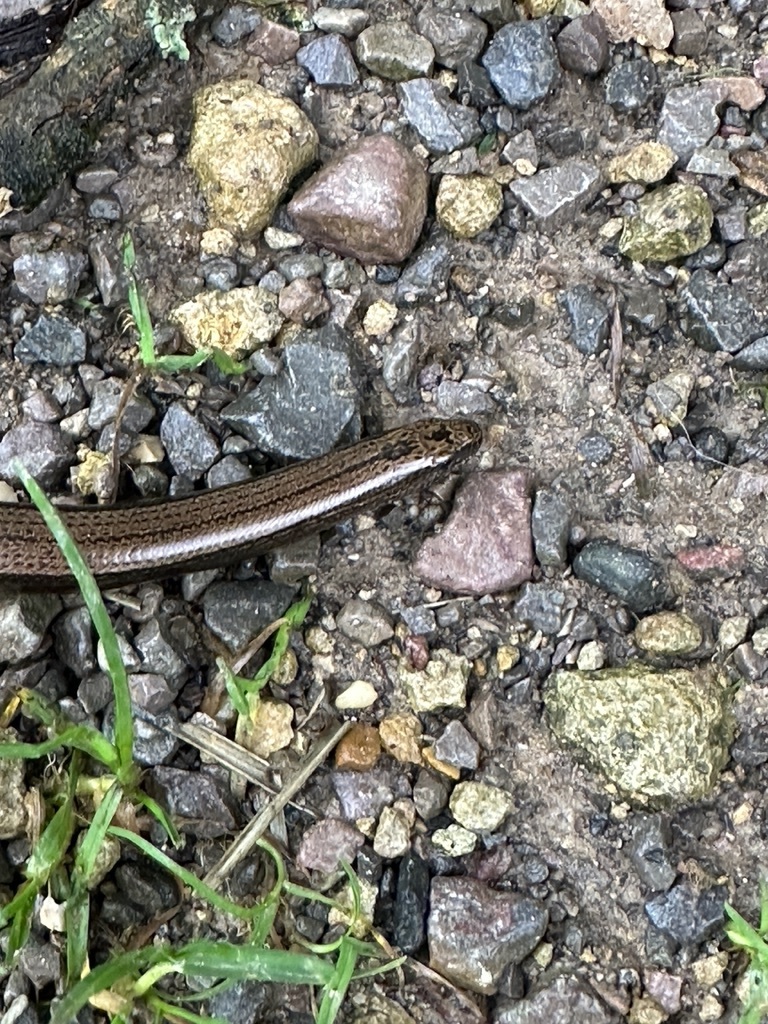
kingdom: Animalia
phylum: Chordata
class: Squamata
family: Anguidae
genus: Anguis
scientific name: Anguis fragilis
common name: Slow worm
